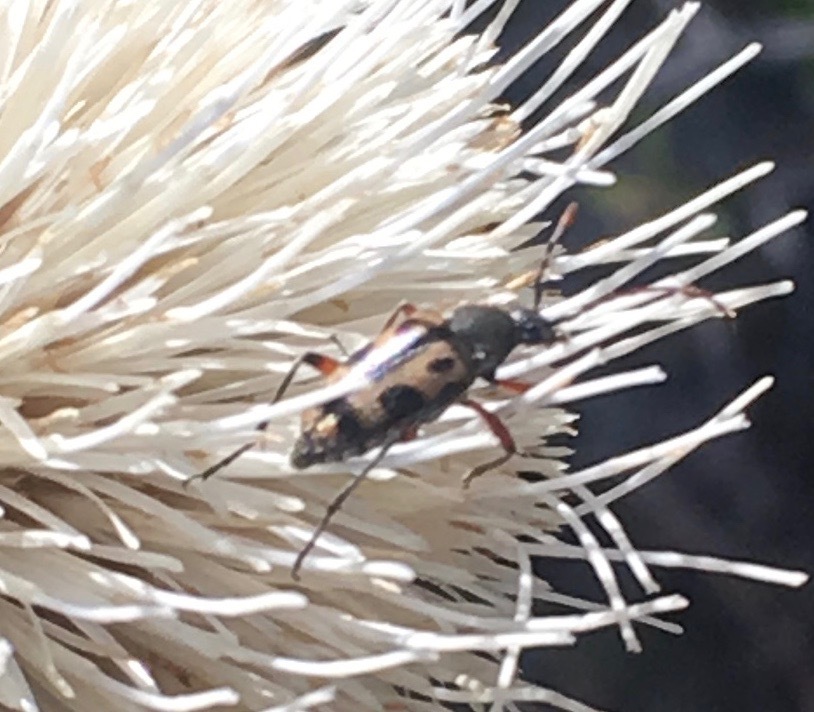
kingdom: Animalia
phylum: Arthropoda
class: Insecta
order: Coleoptera
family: Cerambycidae
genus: Judolia
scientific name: Judolia sexspilota
